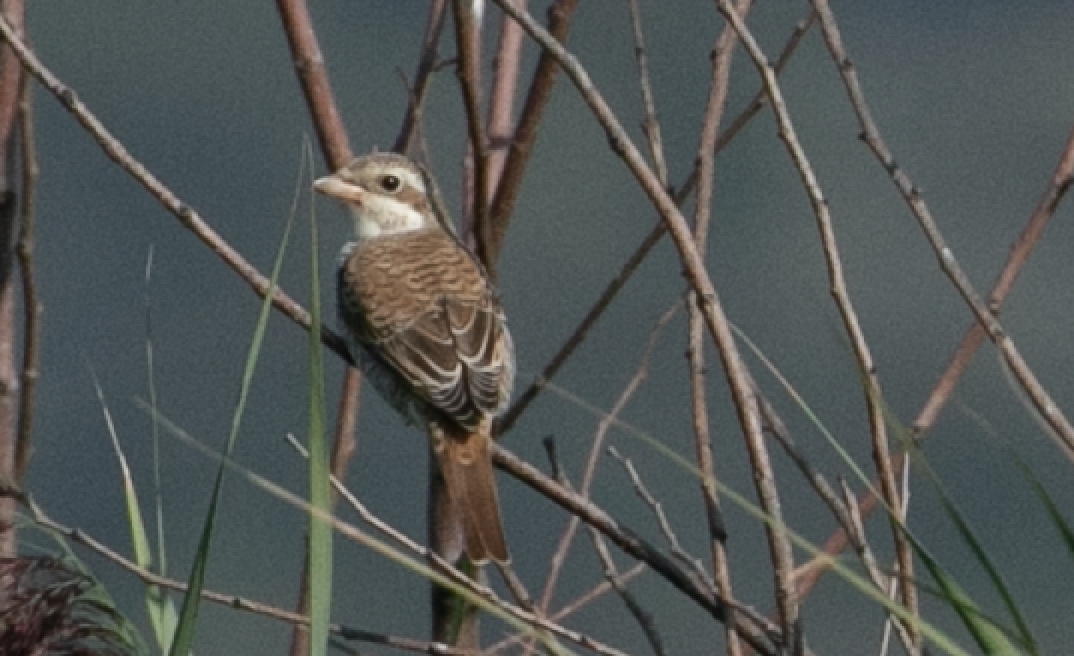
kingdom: Animalia
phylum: Chordata
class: Aves
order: Passeriformes
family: Laniidae
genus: Lanius
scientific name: Lanius collurio
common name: Red-backed shrike
